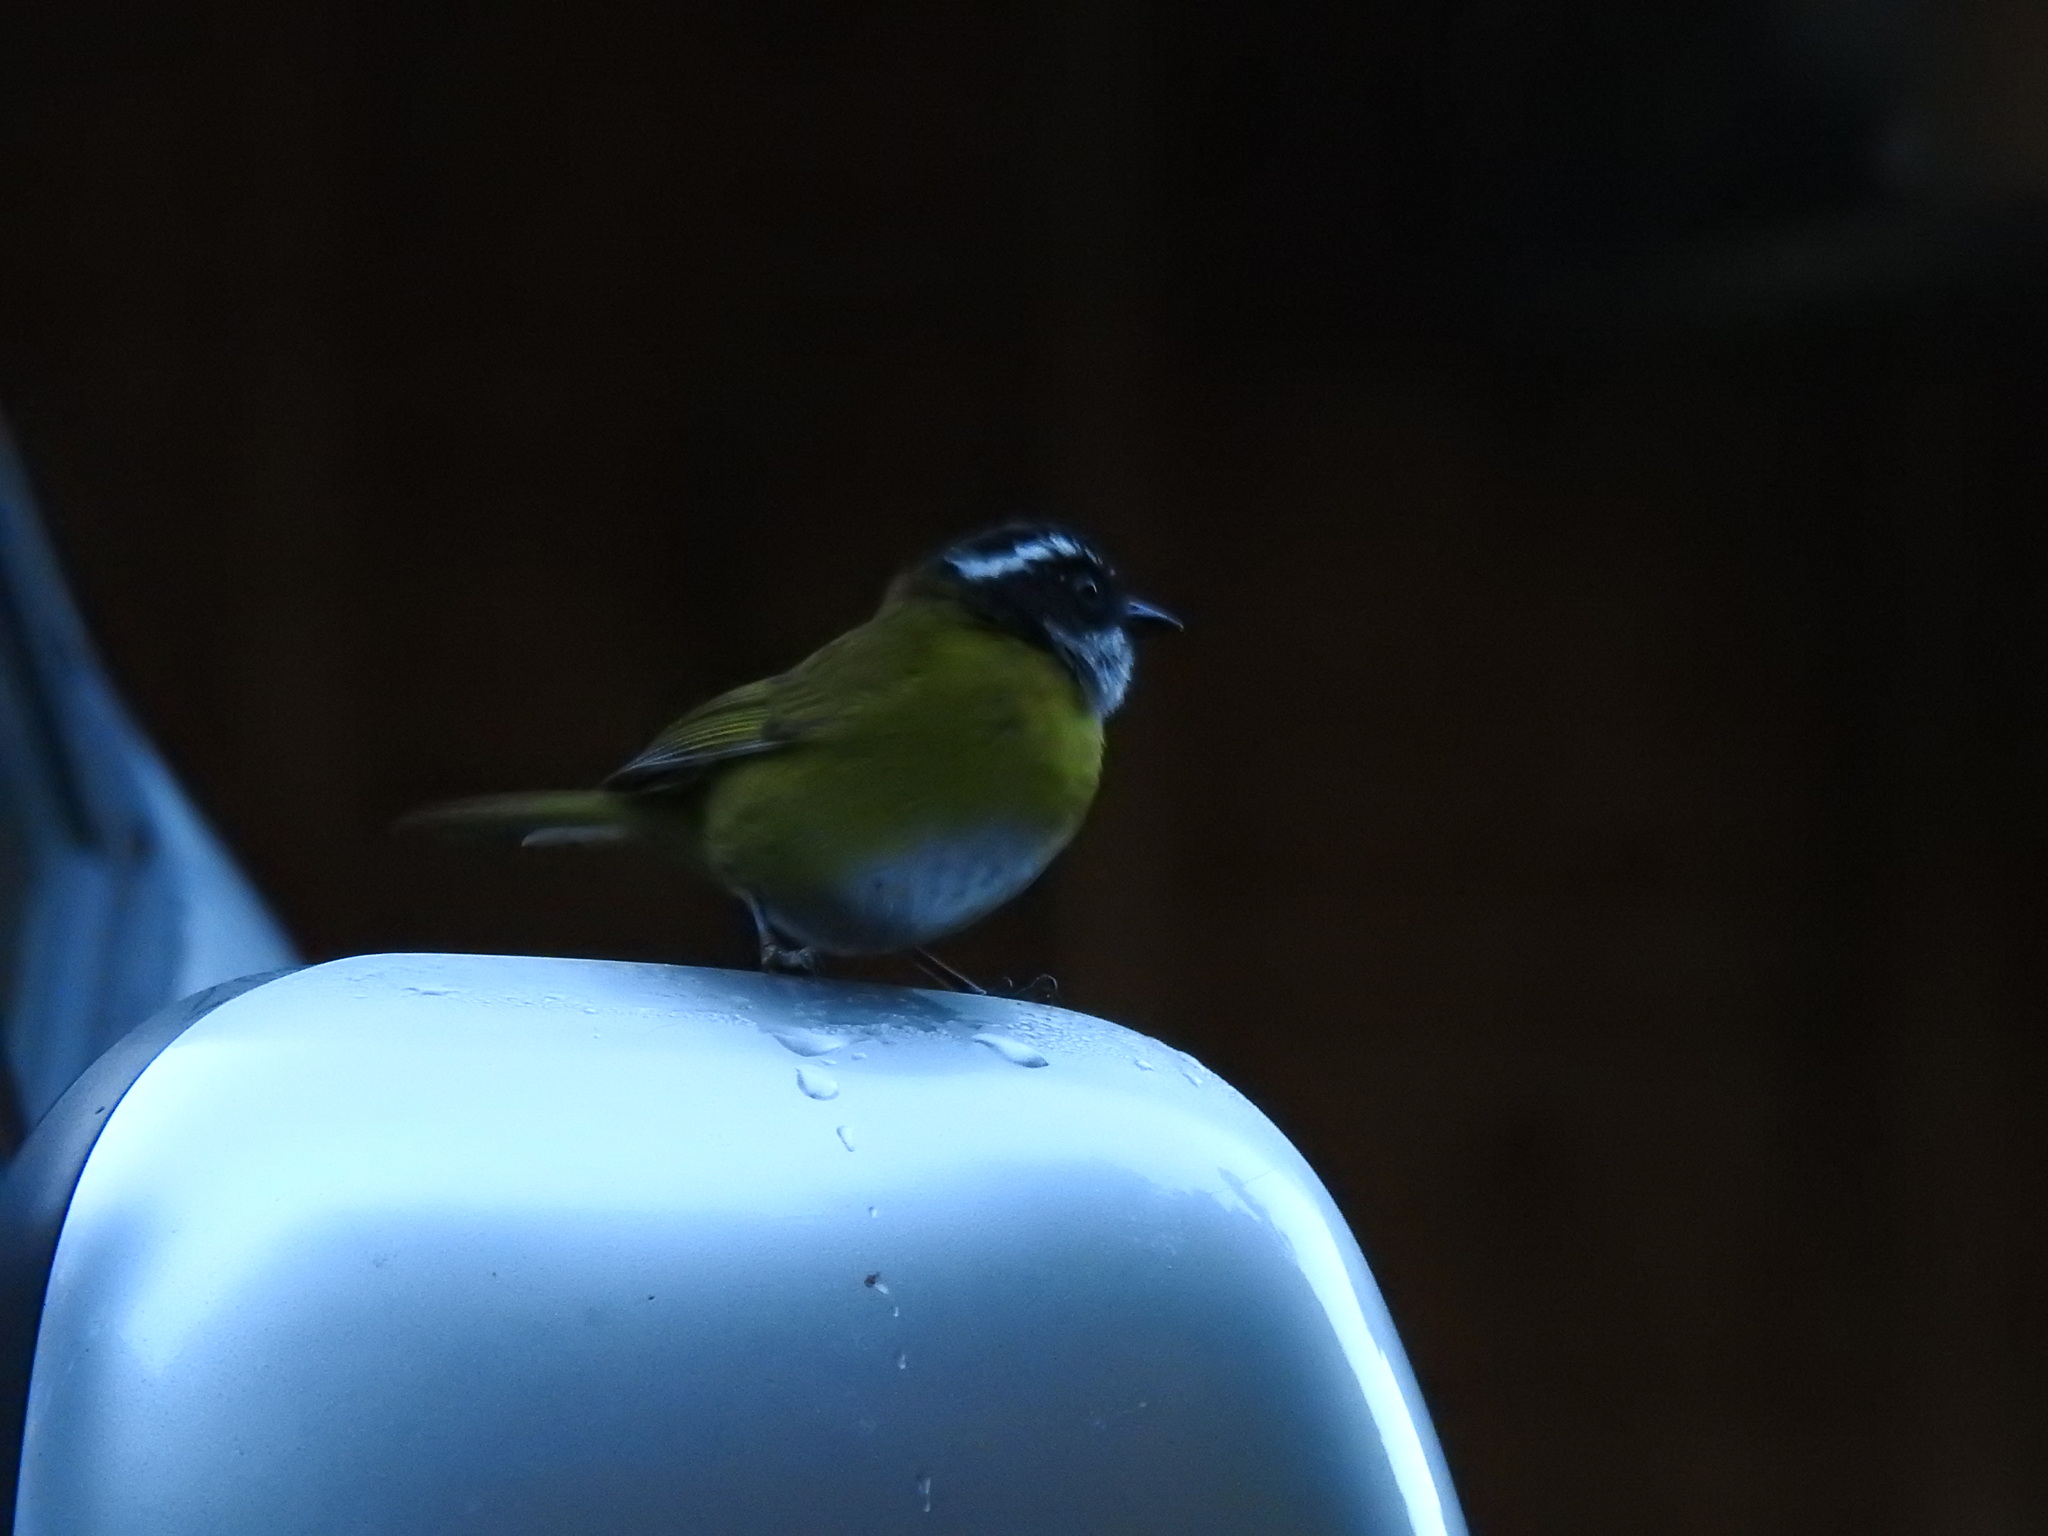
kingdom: Animalia
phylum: Chordata
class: Aves
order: Passeriformes
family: Passerellidae
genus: Chlorospingus
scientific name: Chlorospingus pileatus
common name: Sooty-capped bush-tanager
